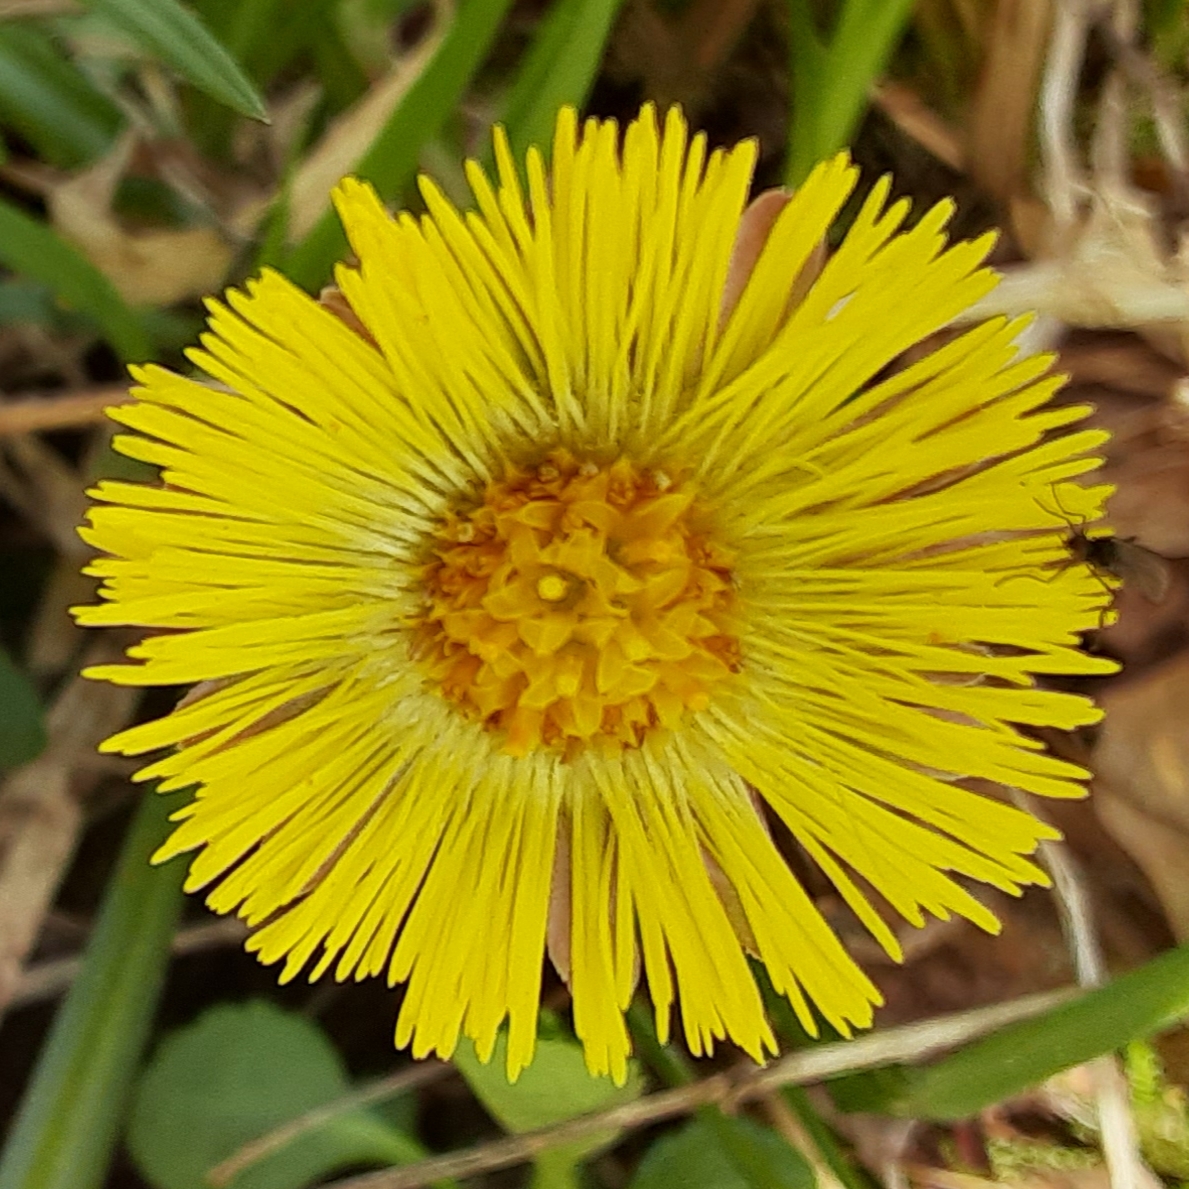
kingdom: Plantae
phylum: Tracheophyta
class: Magnoliopsida
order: Asterales
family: Asteraceae
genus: Tussilago
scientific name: Tussilago farfara
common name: Coltsfoot
